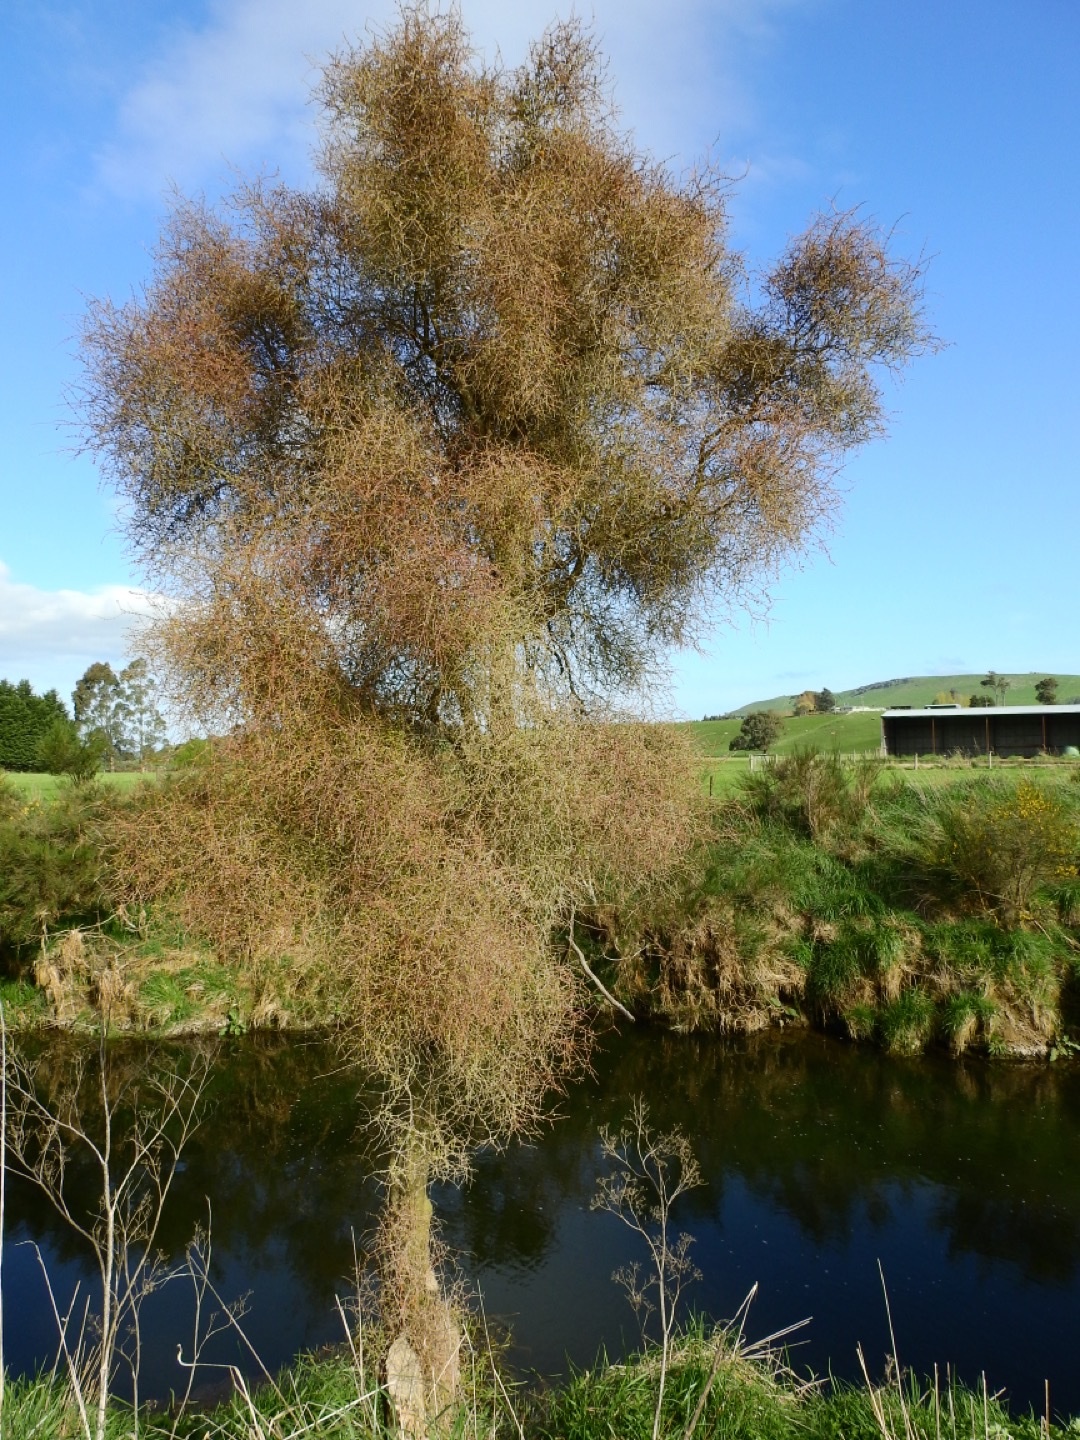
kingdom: Plantae
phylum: Tracheophyta
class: Magnoliopsida
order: Gentianales
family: Rubiaceae
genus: Coprosma
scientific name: Coprosma virescens
